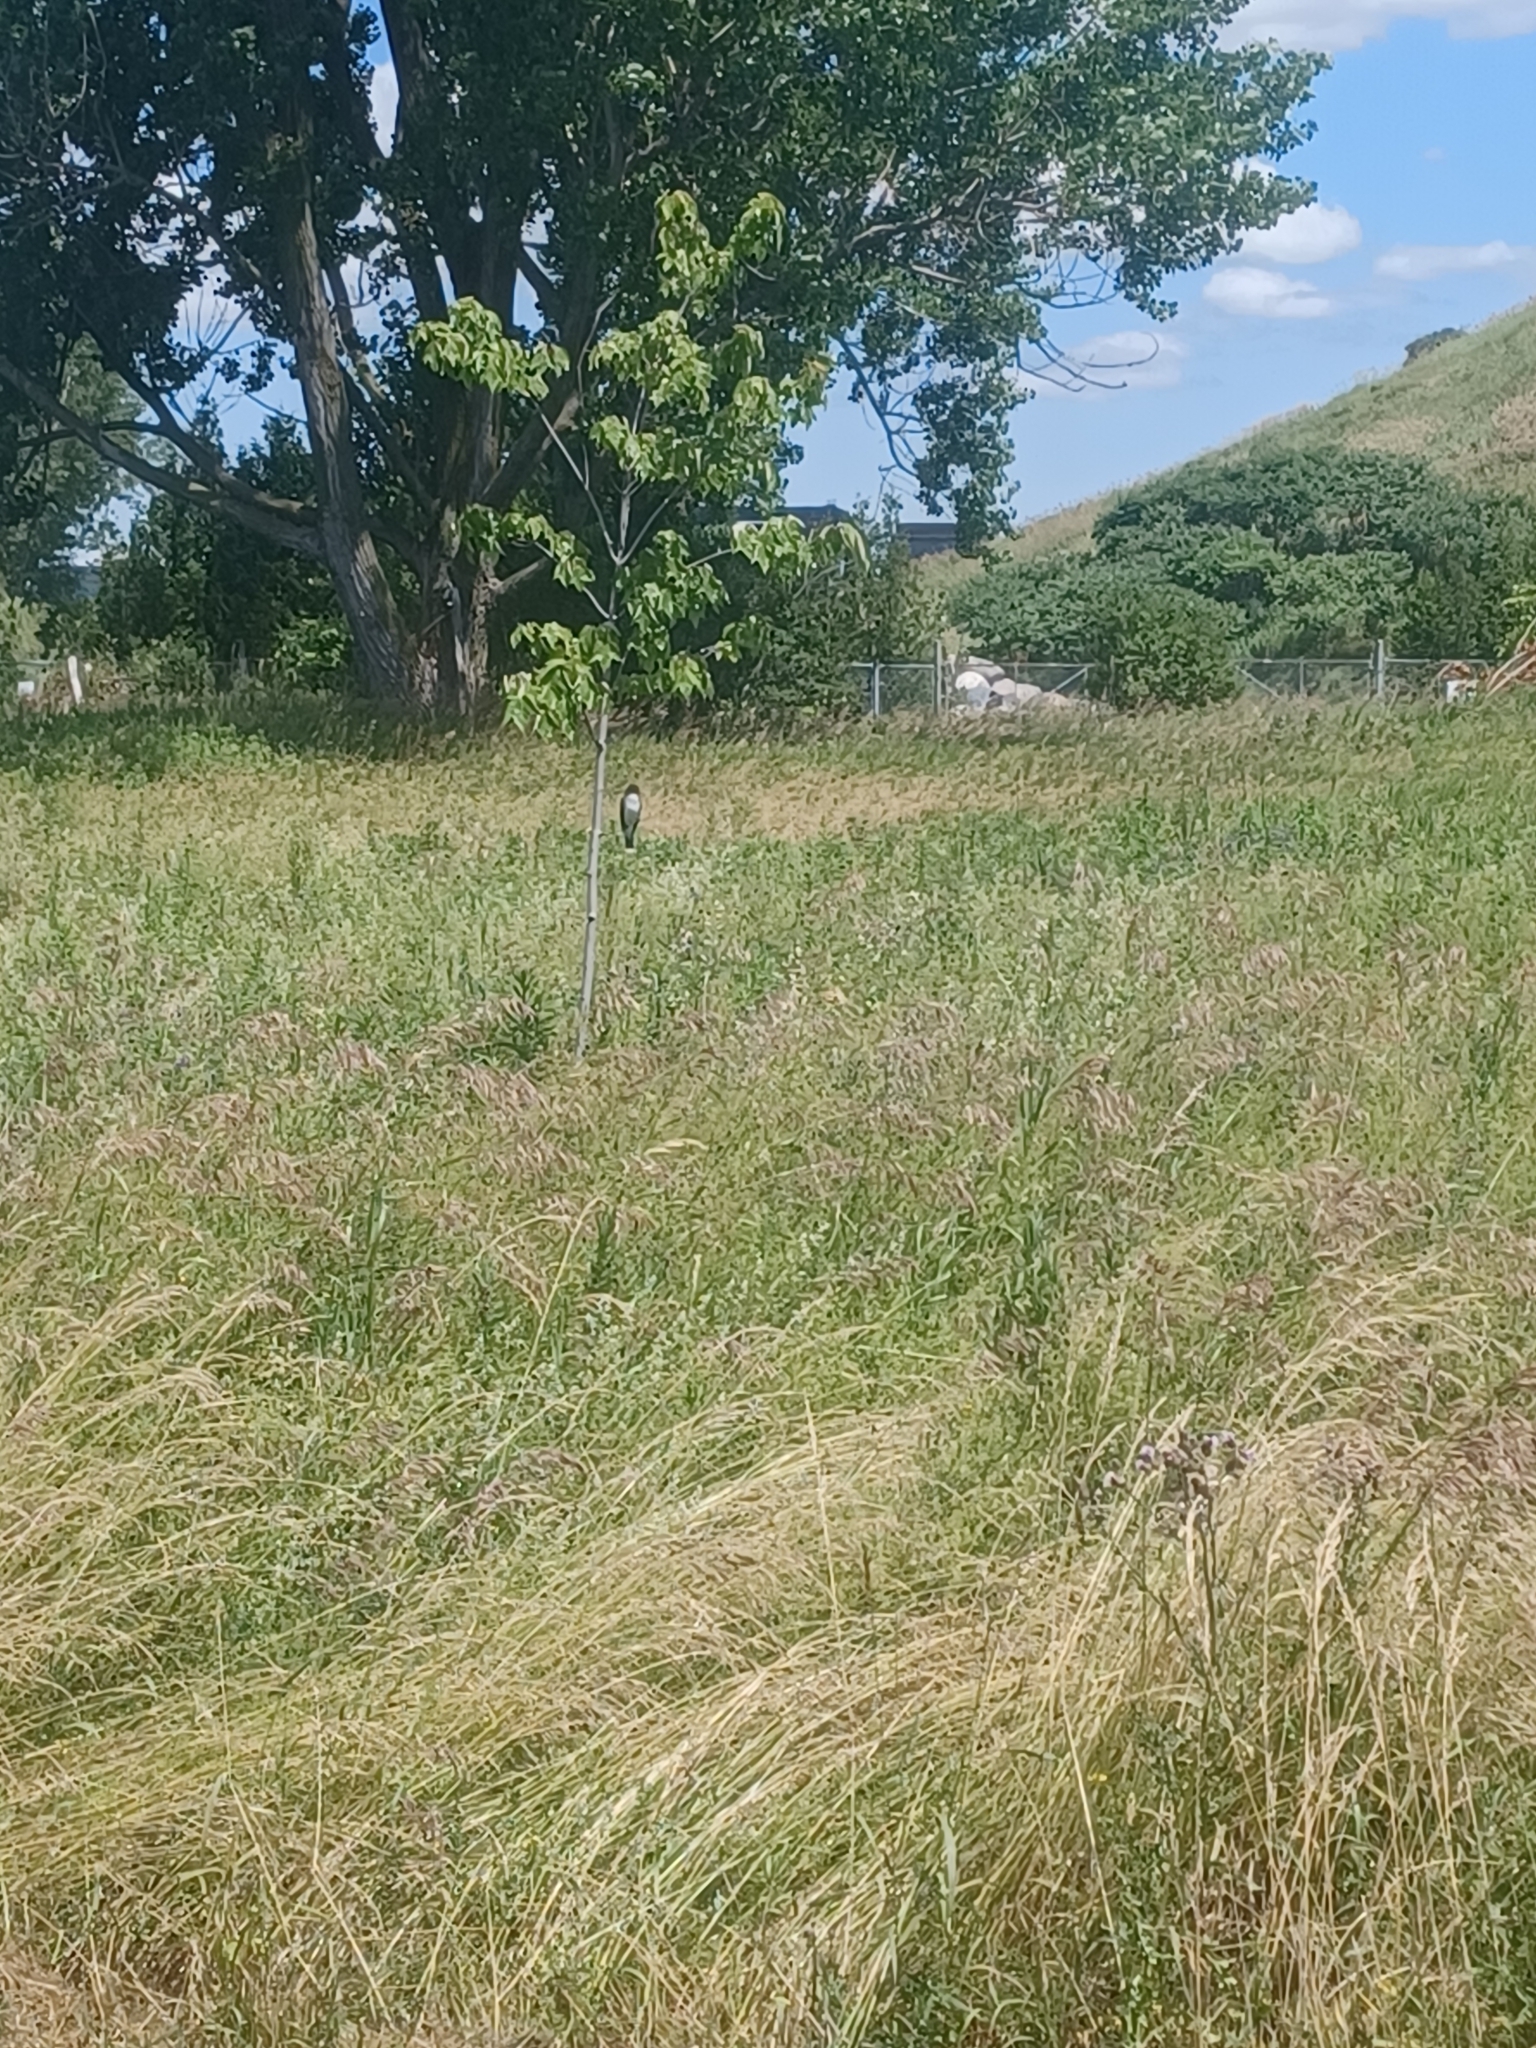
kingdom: Animalia
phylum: Chordata
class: Aves
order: Passeriformes
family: Tyrannidae
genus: Tyrannus
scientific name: Tyrannus tyrannus
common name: Eastern kingbird
